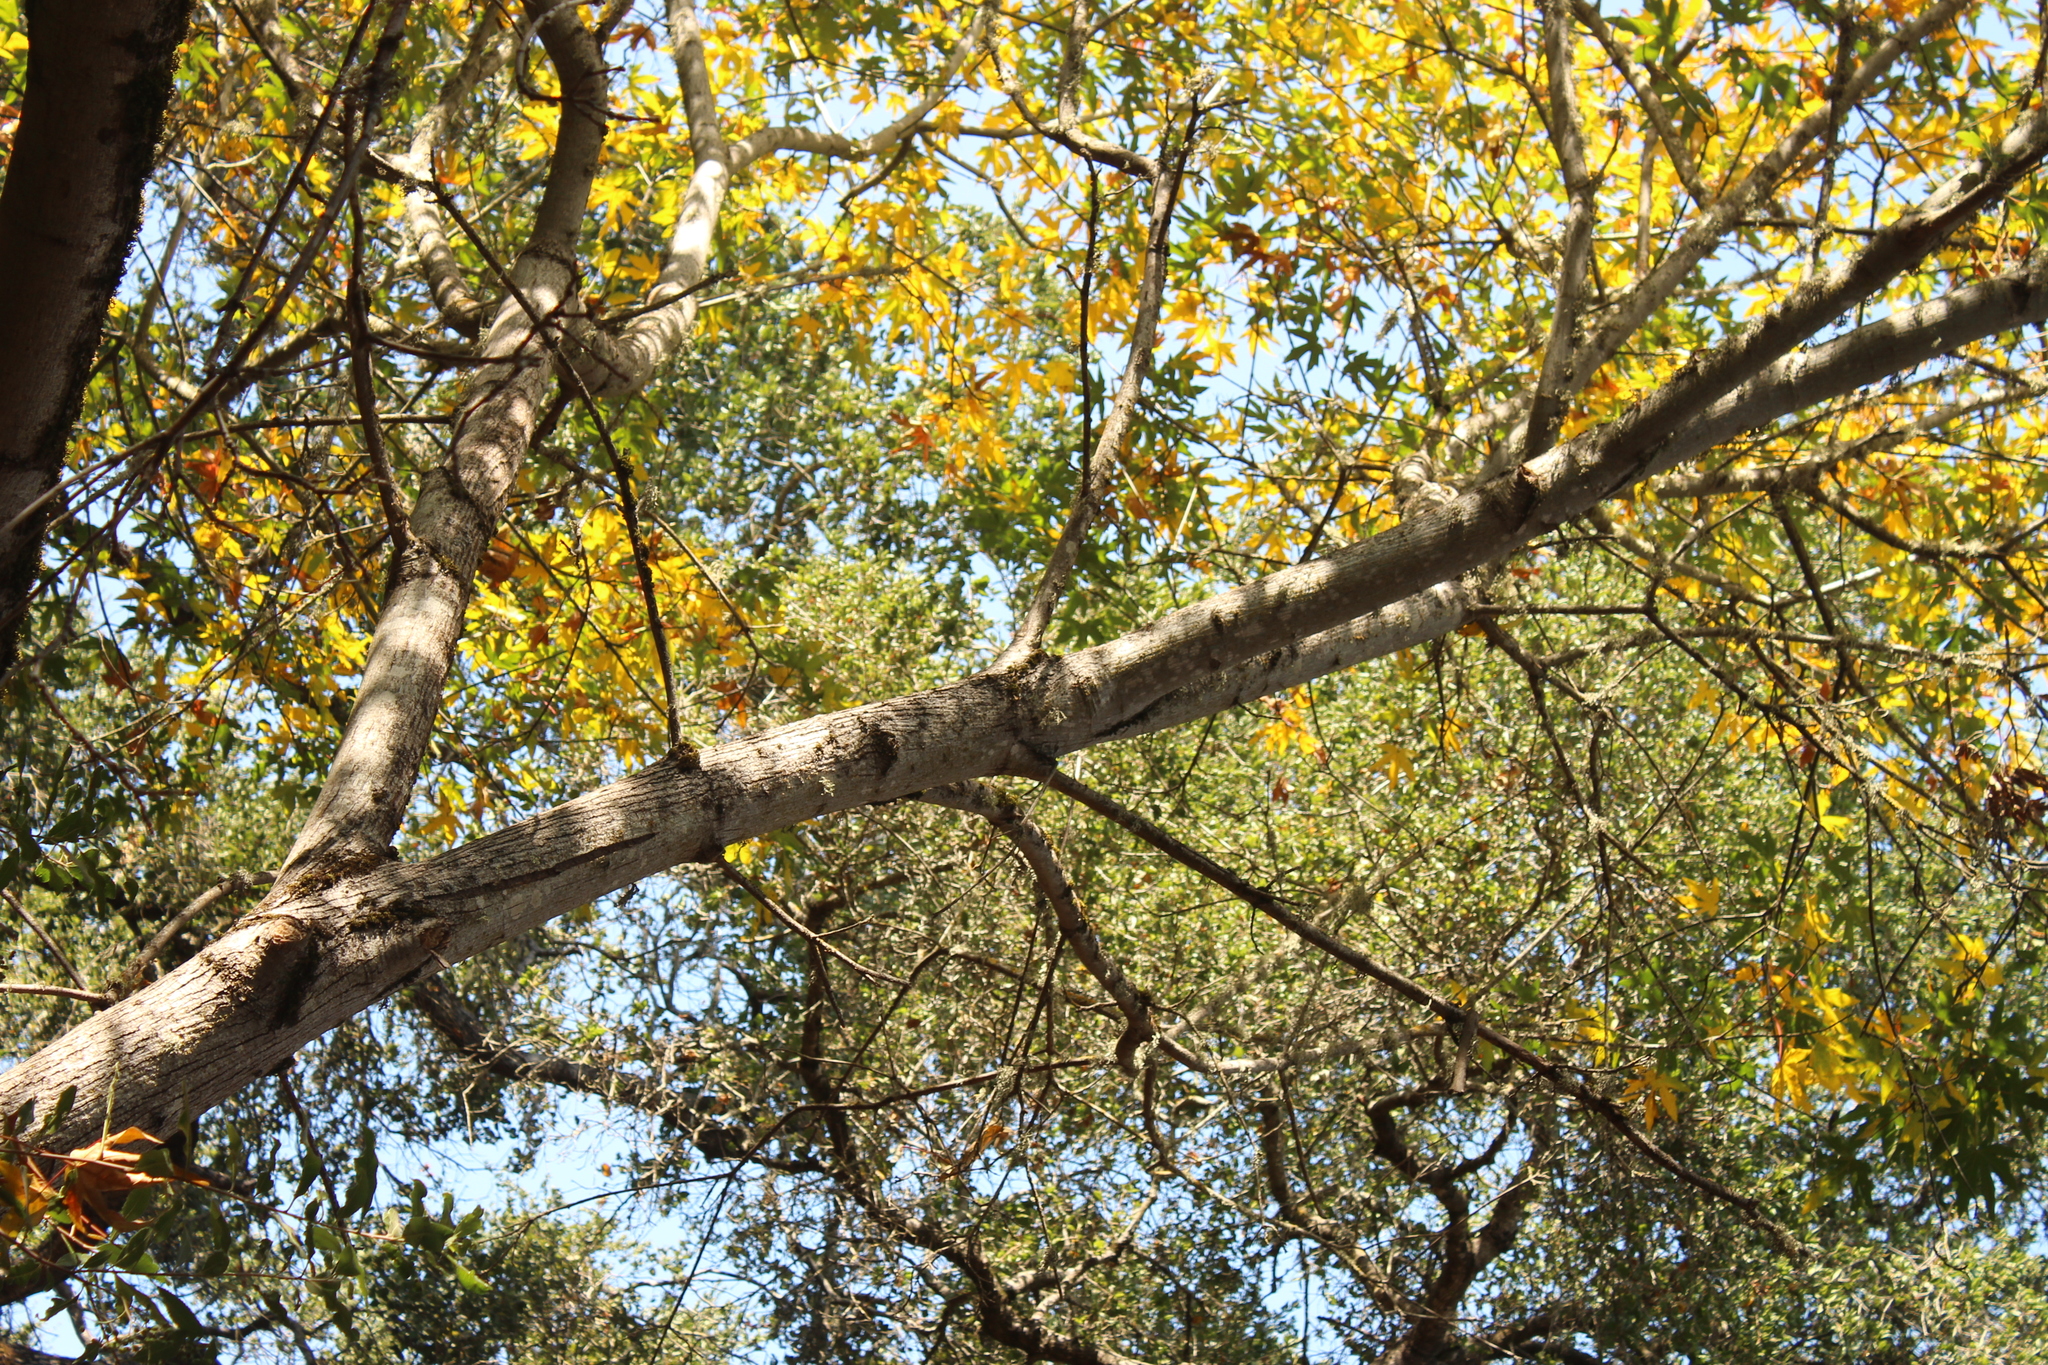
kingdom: Plantae
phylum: Tracheophyta
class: Magnoliopsida
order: Sapindales
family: Sapindaceae
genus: Acer
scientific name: Acer macrophyllum
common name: Oregon maple
